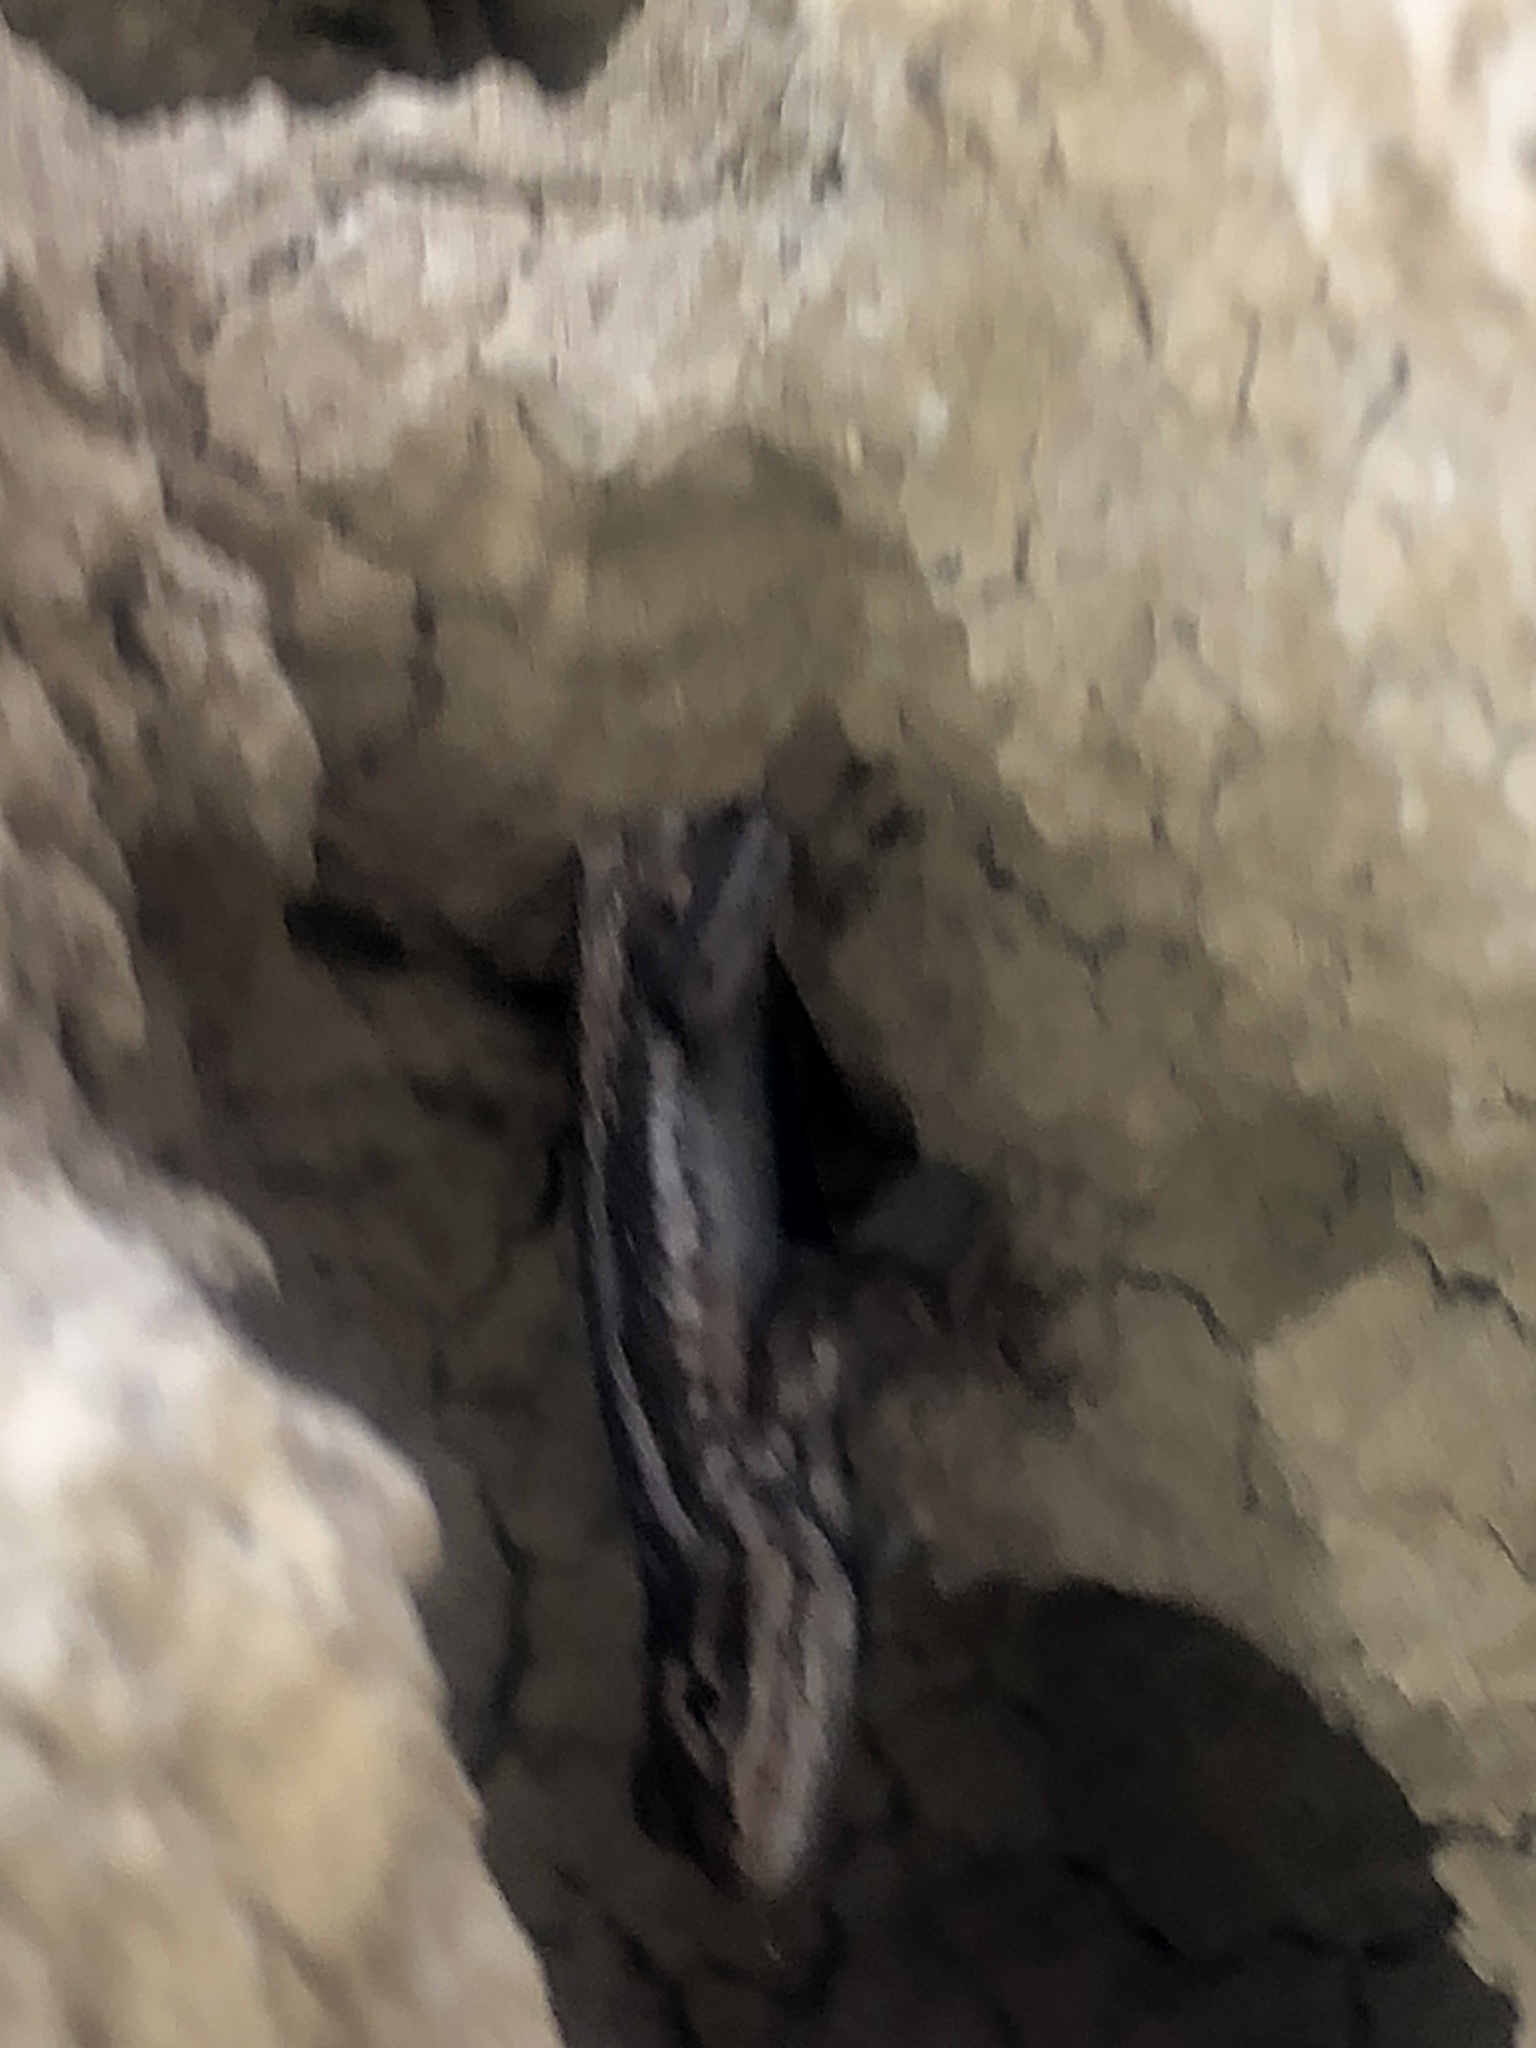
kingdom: Animalia
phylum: Chordata
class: Squamata
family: Phrynosomatidae
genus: Sceloporus
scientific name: Sceloporus cowlesi
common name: White sands prairie lizard
